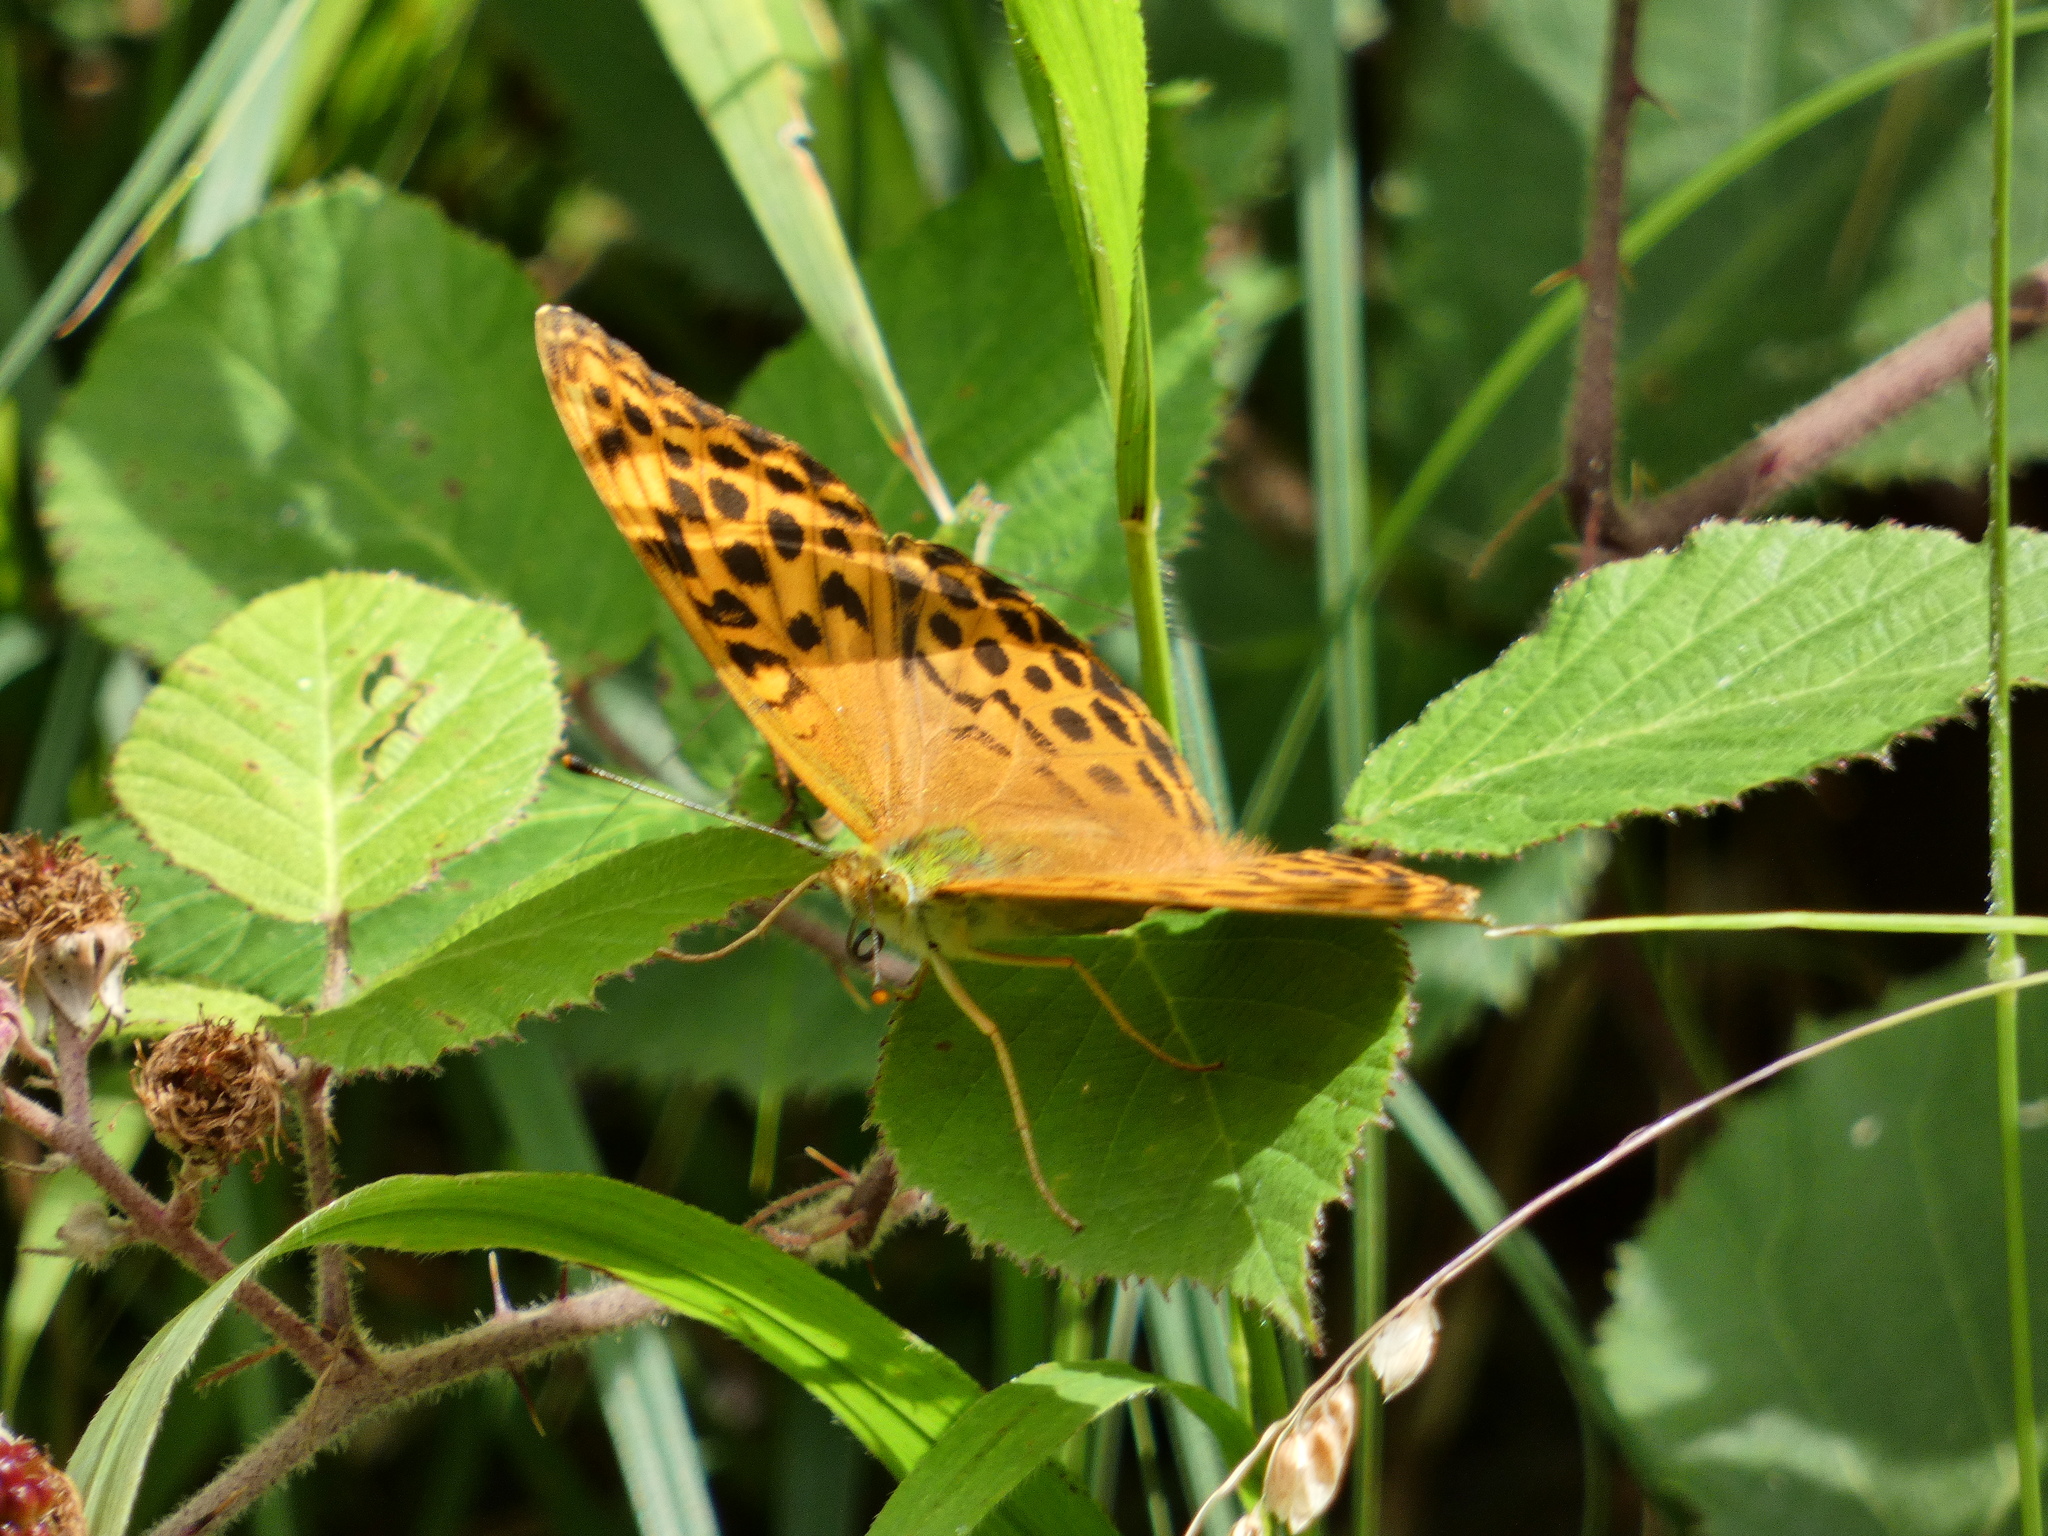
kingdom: Animalia
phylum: Arthropoda
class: Insecta
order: Lepidoptera
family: Nymphalidae
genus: Argynnis
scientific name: Argynnis paphia
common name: Silver-washed fritillary
